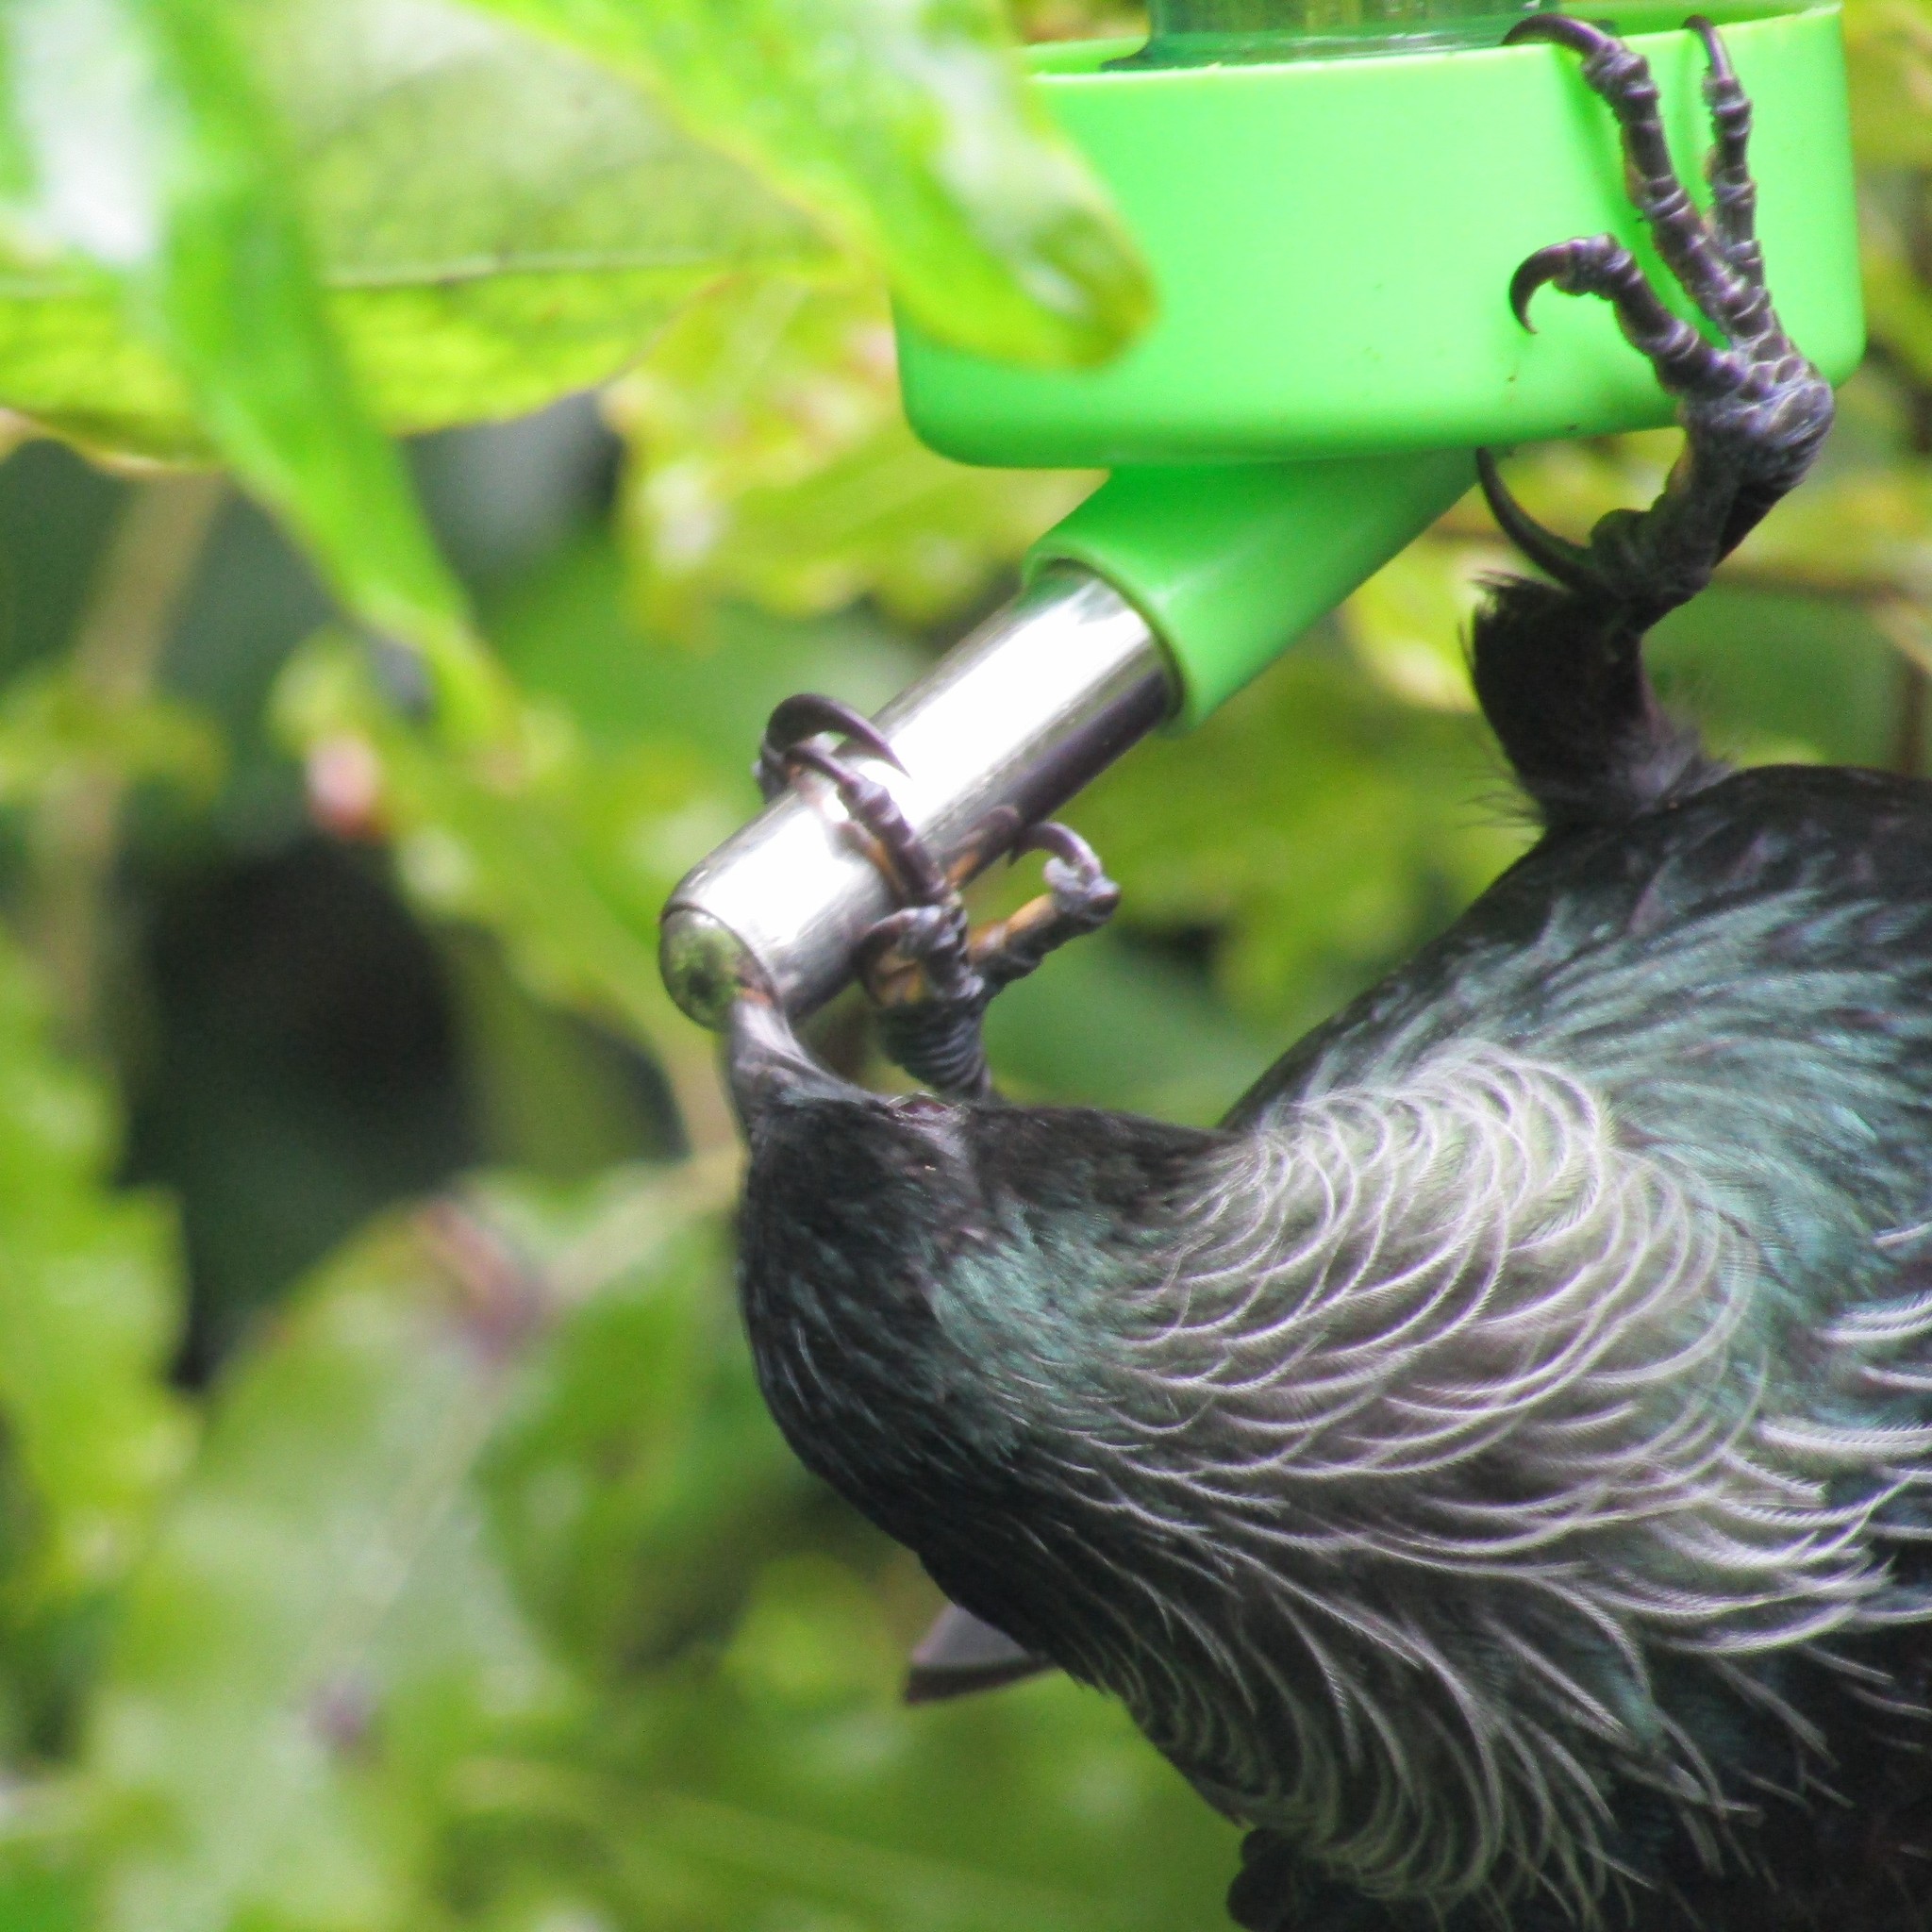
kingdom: Animalia
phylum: Chordata
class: Aves
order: Passeriformes
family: Meliphagidae
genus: Prosthemadera
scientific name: Prosthemadera novaeseelandiae
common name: Tui
